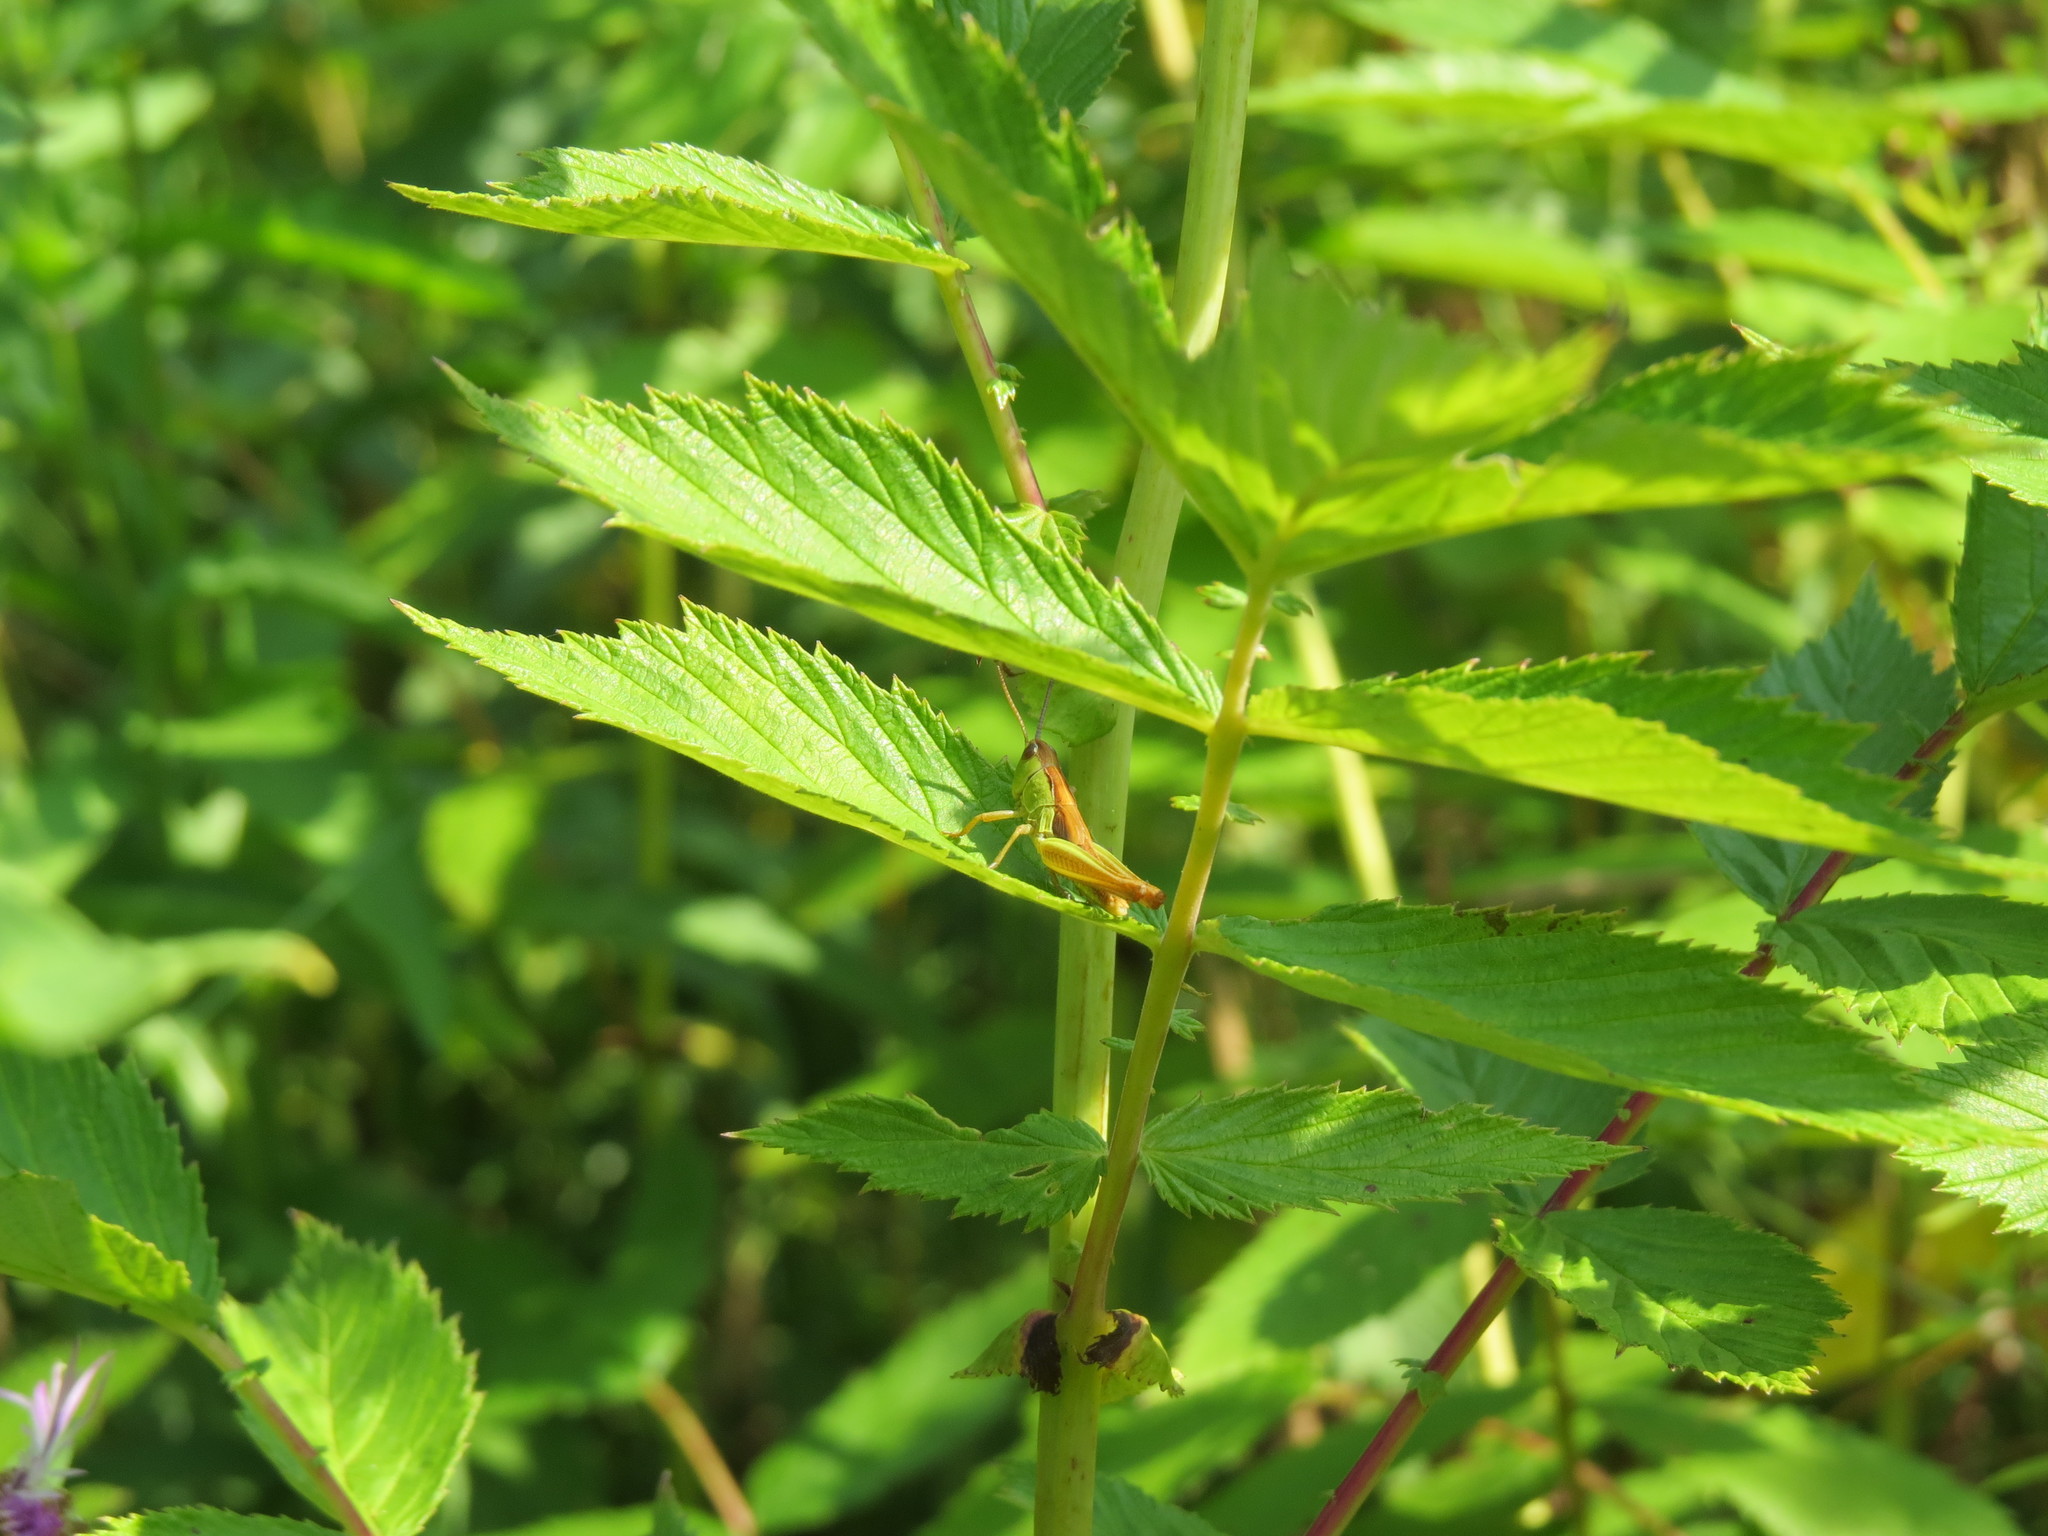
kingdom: Animalia
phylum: Arthropoda
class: Insecta
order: Orthoptera
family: Acrididae
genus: Pseudochorthippus
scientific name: Pseudochorthippus montanus
